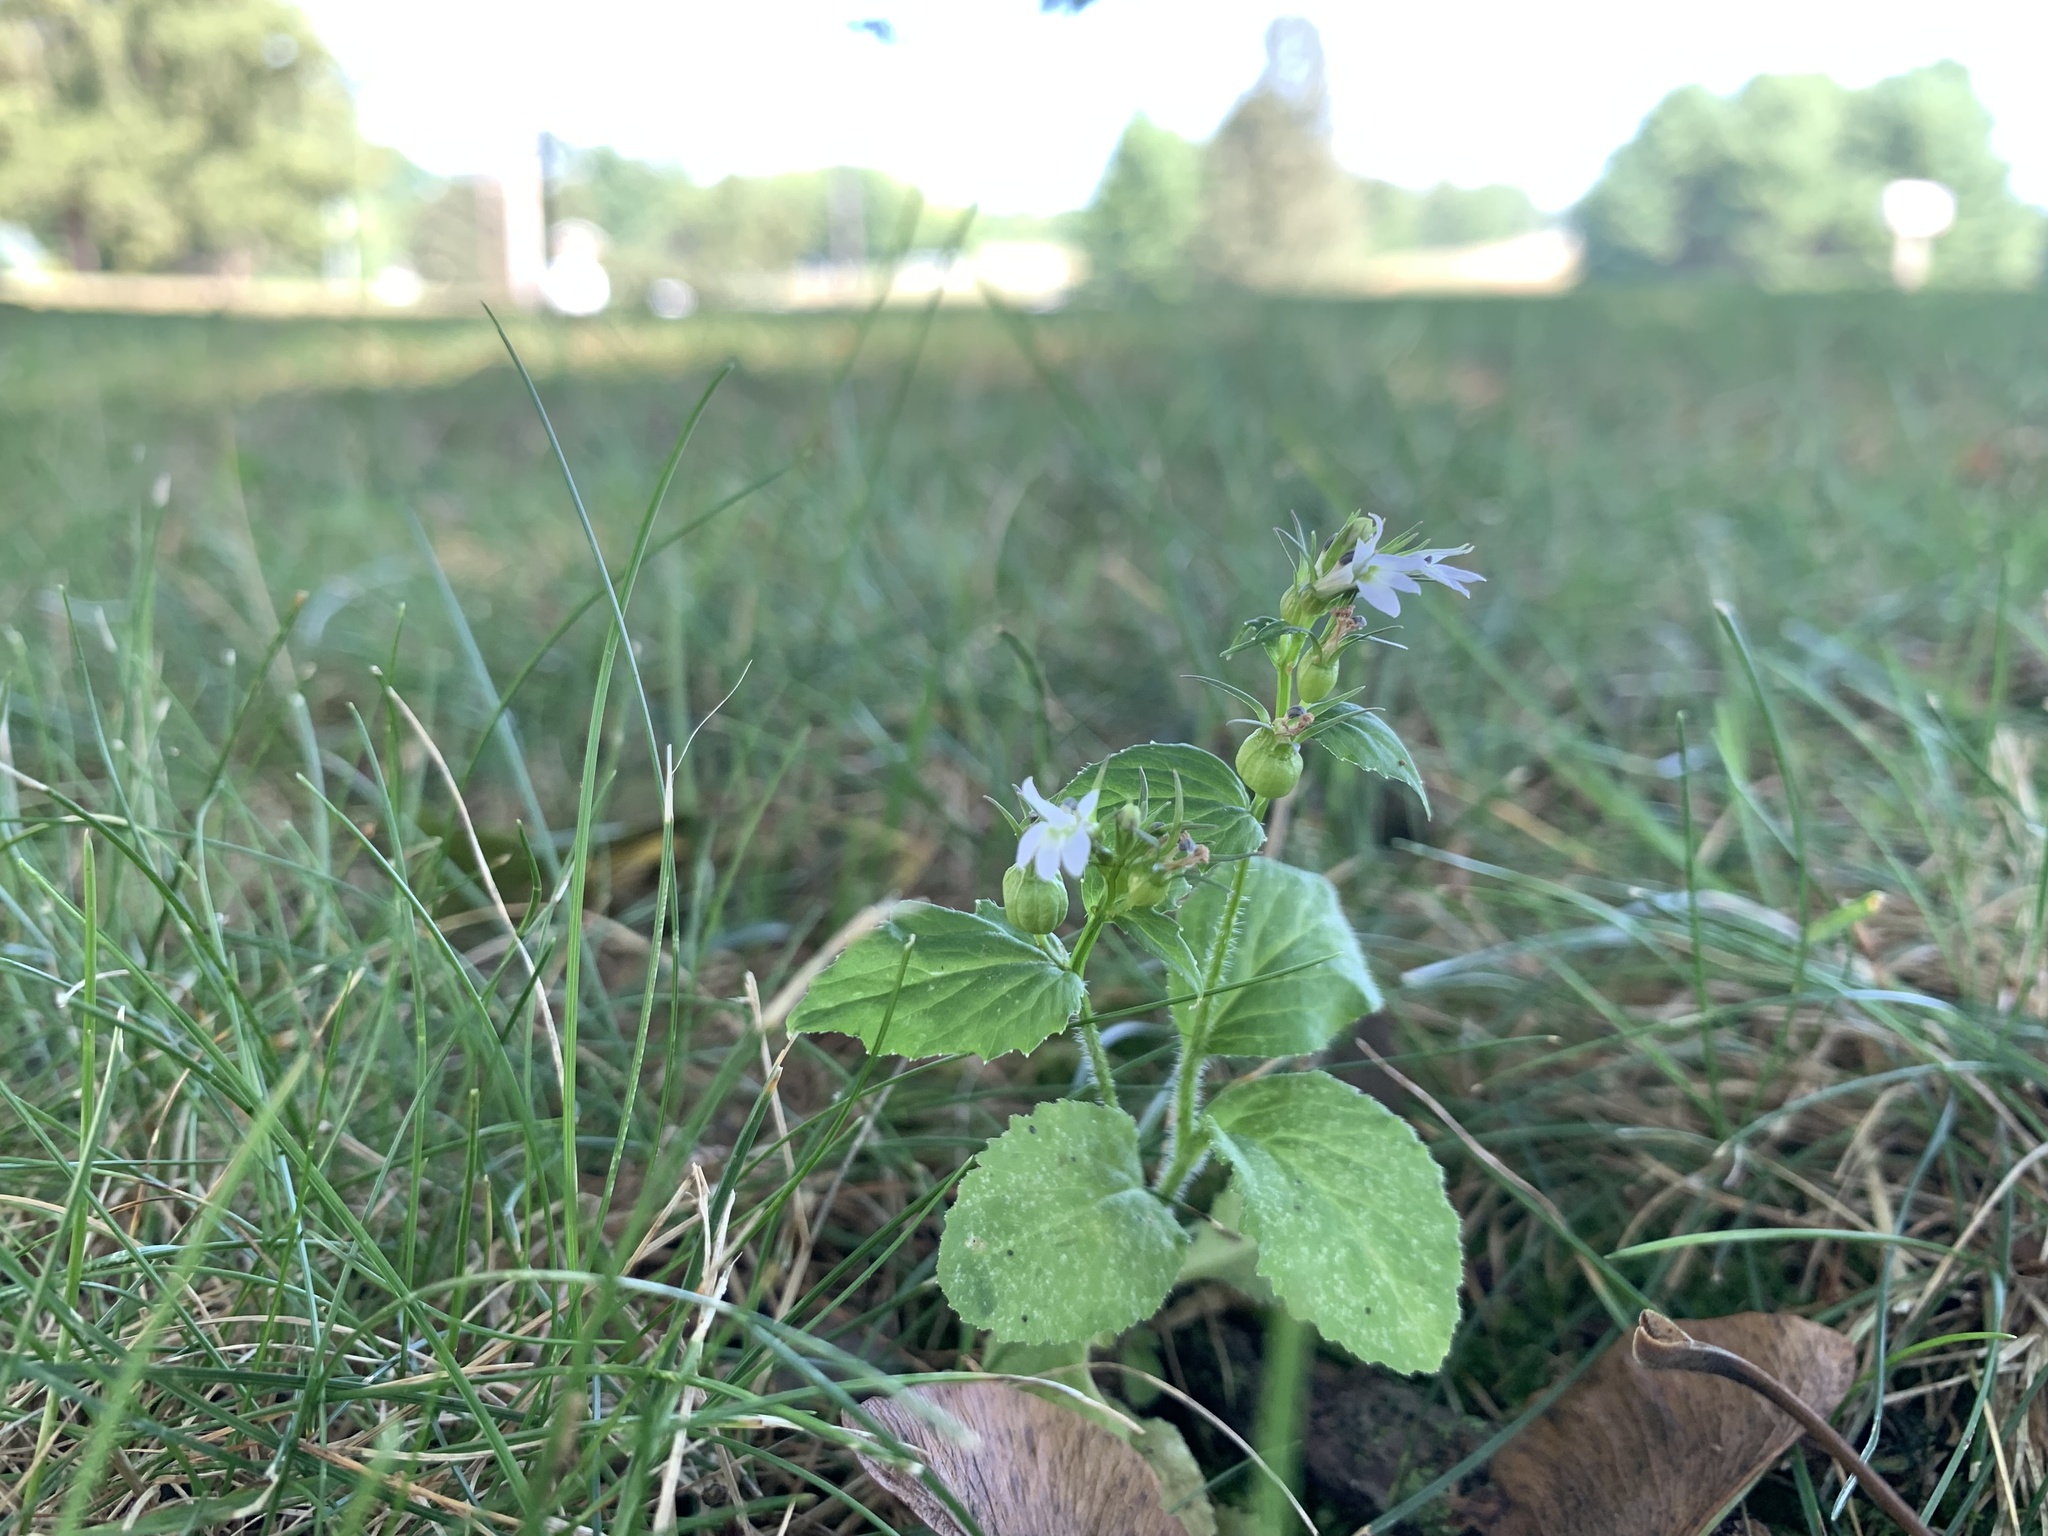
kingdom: Plantae
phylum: Tracheophyta
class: Magnoliopsida
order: Asterales
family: Campanulaceae
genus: Lobelia
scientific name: Lobelia inflata
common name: Indian tobacco
